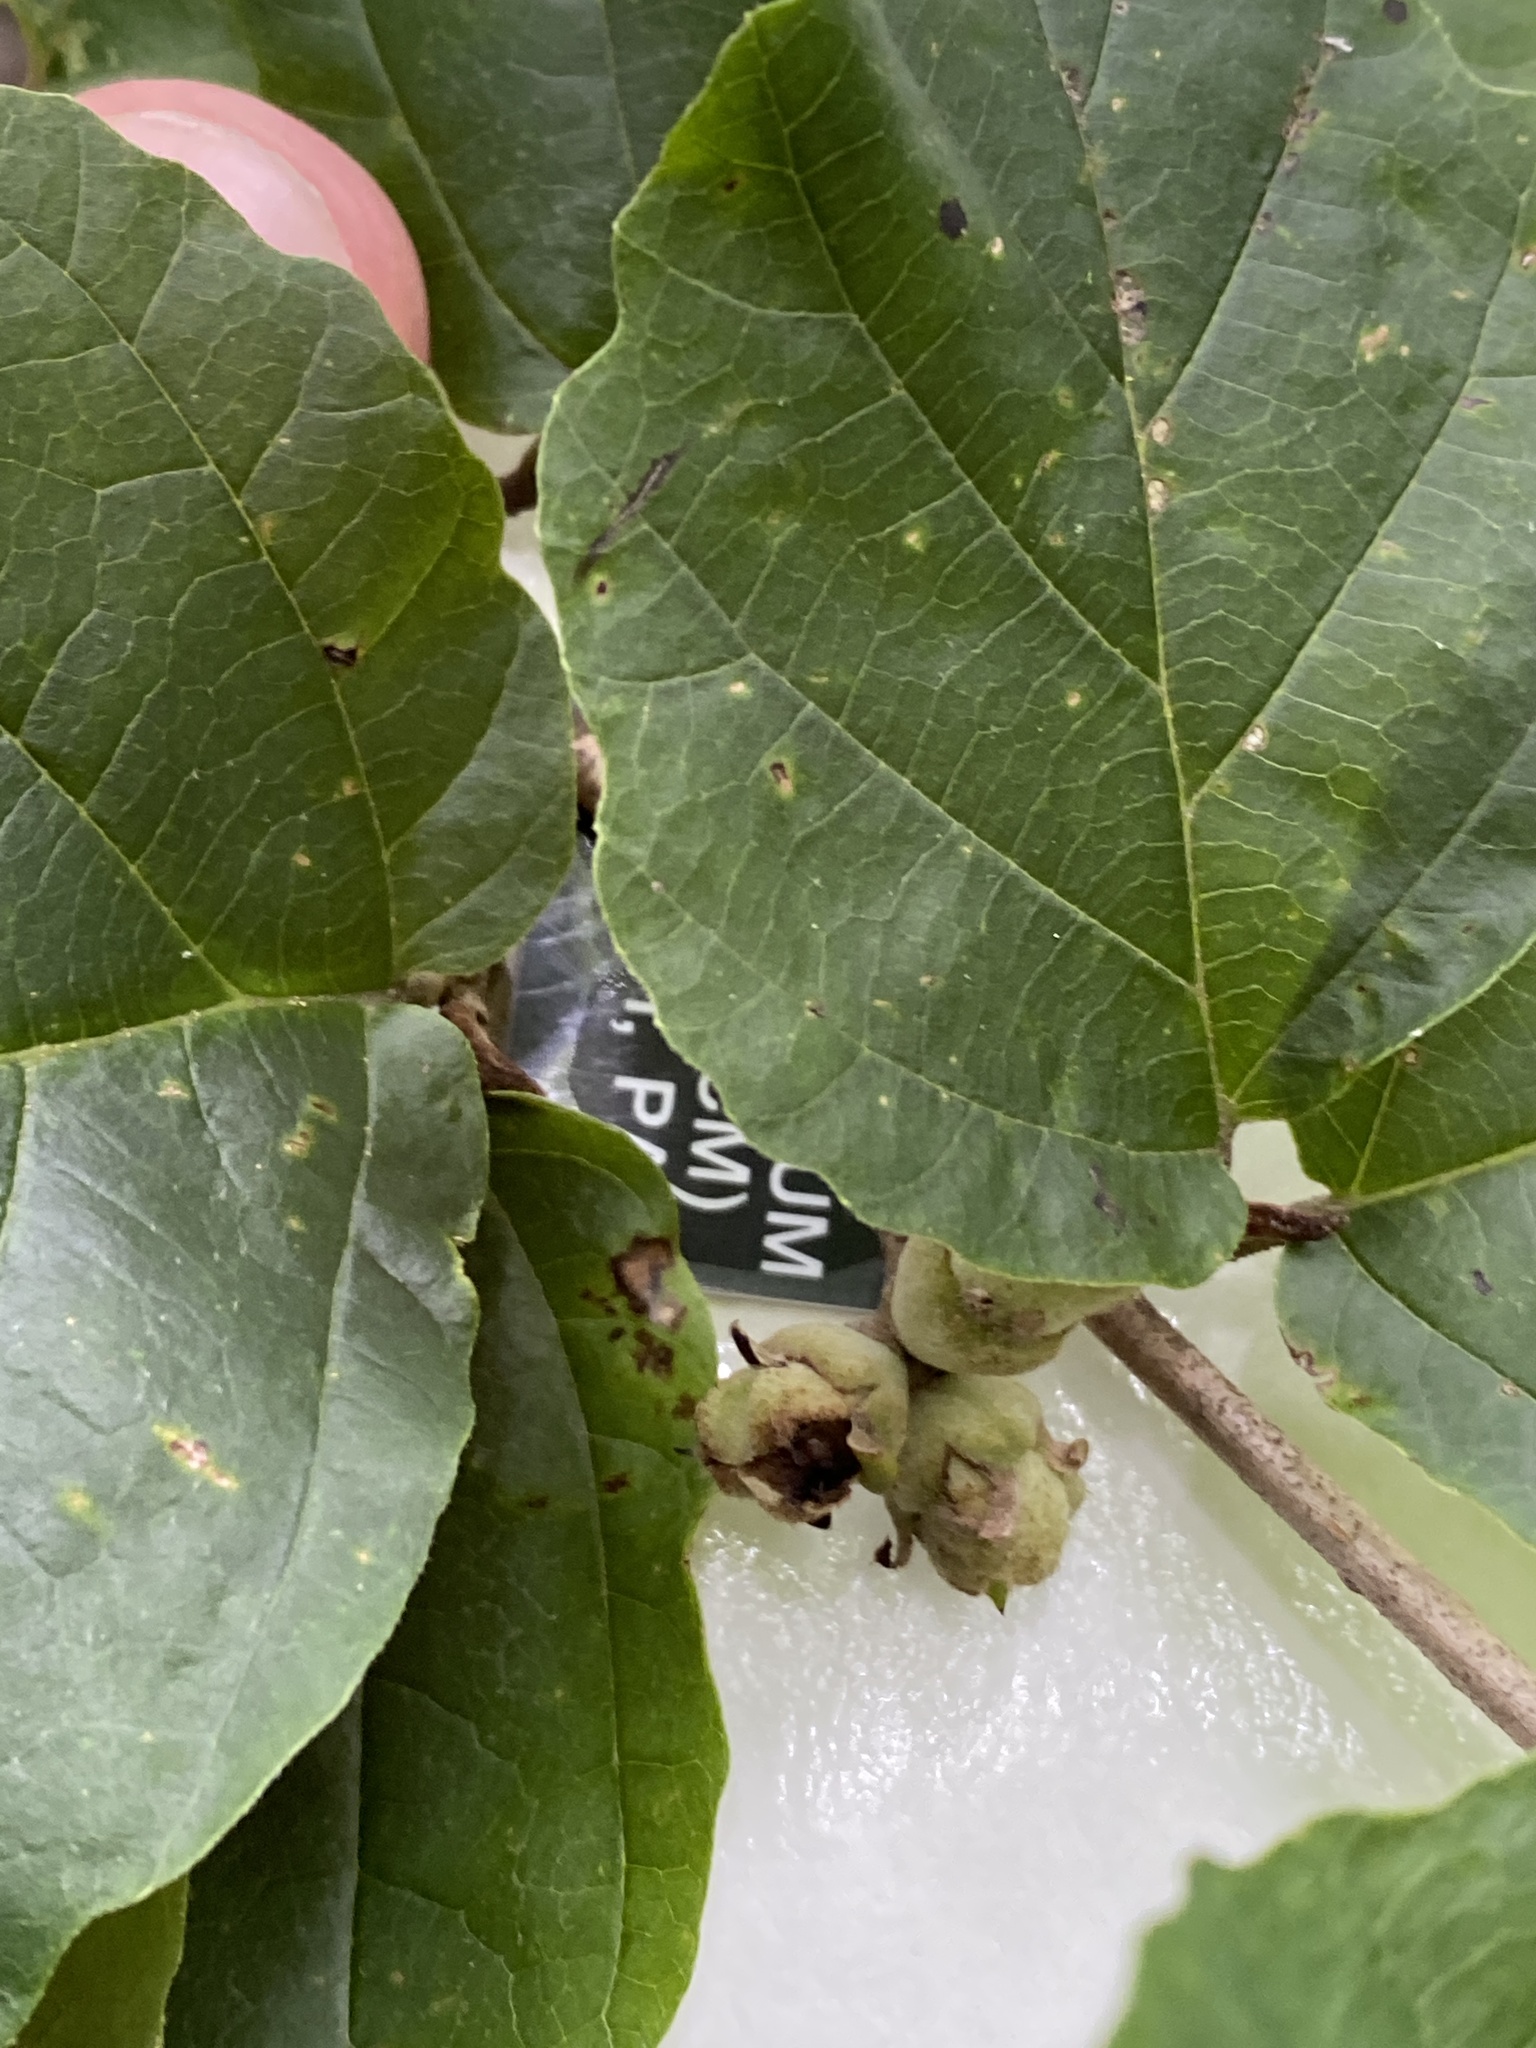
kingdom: Plantae
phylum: Tracheophyta
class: Magnoliopsida
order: Saxifragales
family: Hamamelidaceae
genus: Hamamelis
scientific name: Hamamelis virginiana
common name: Witch-hazel
